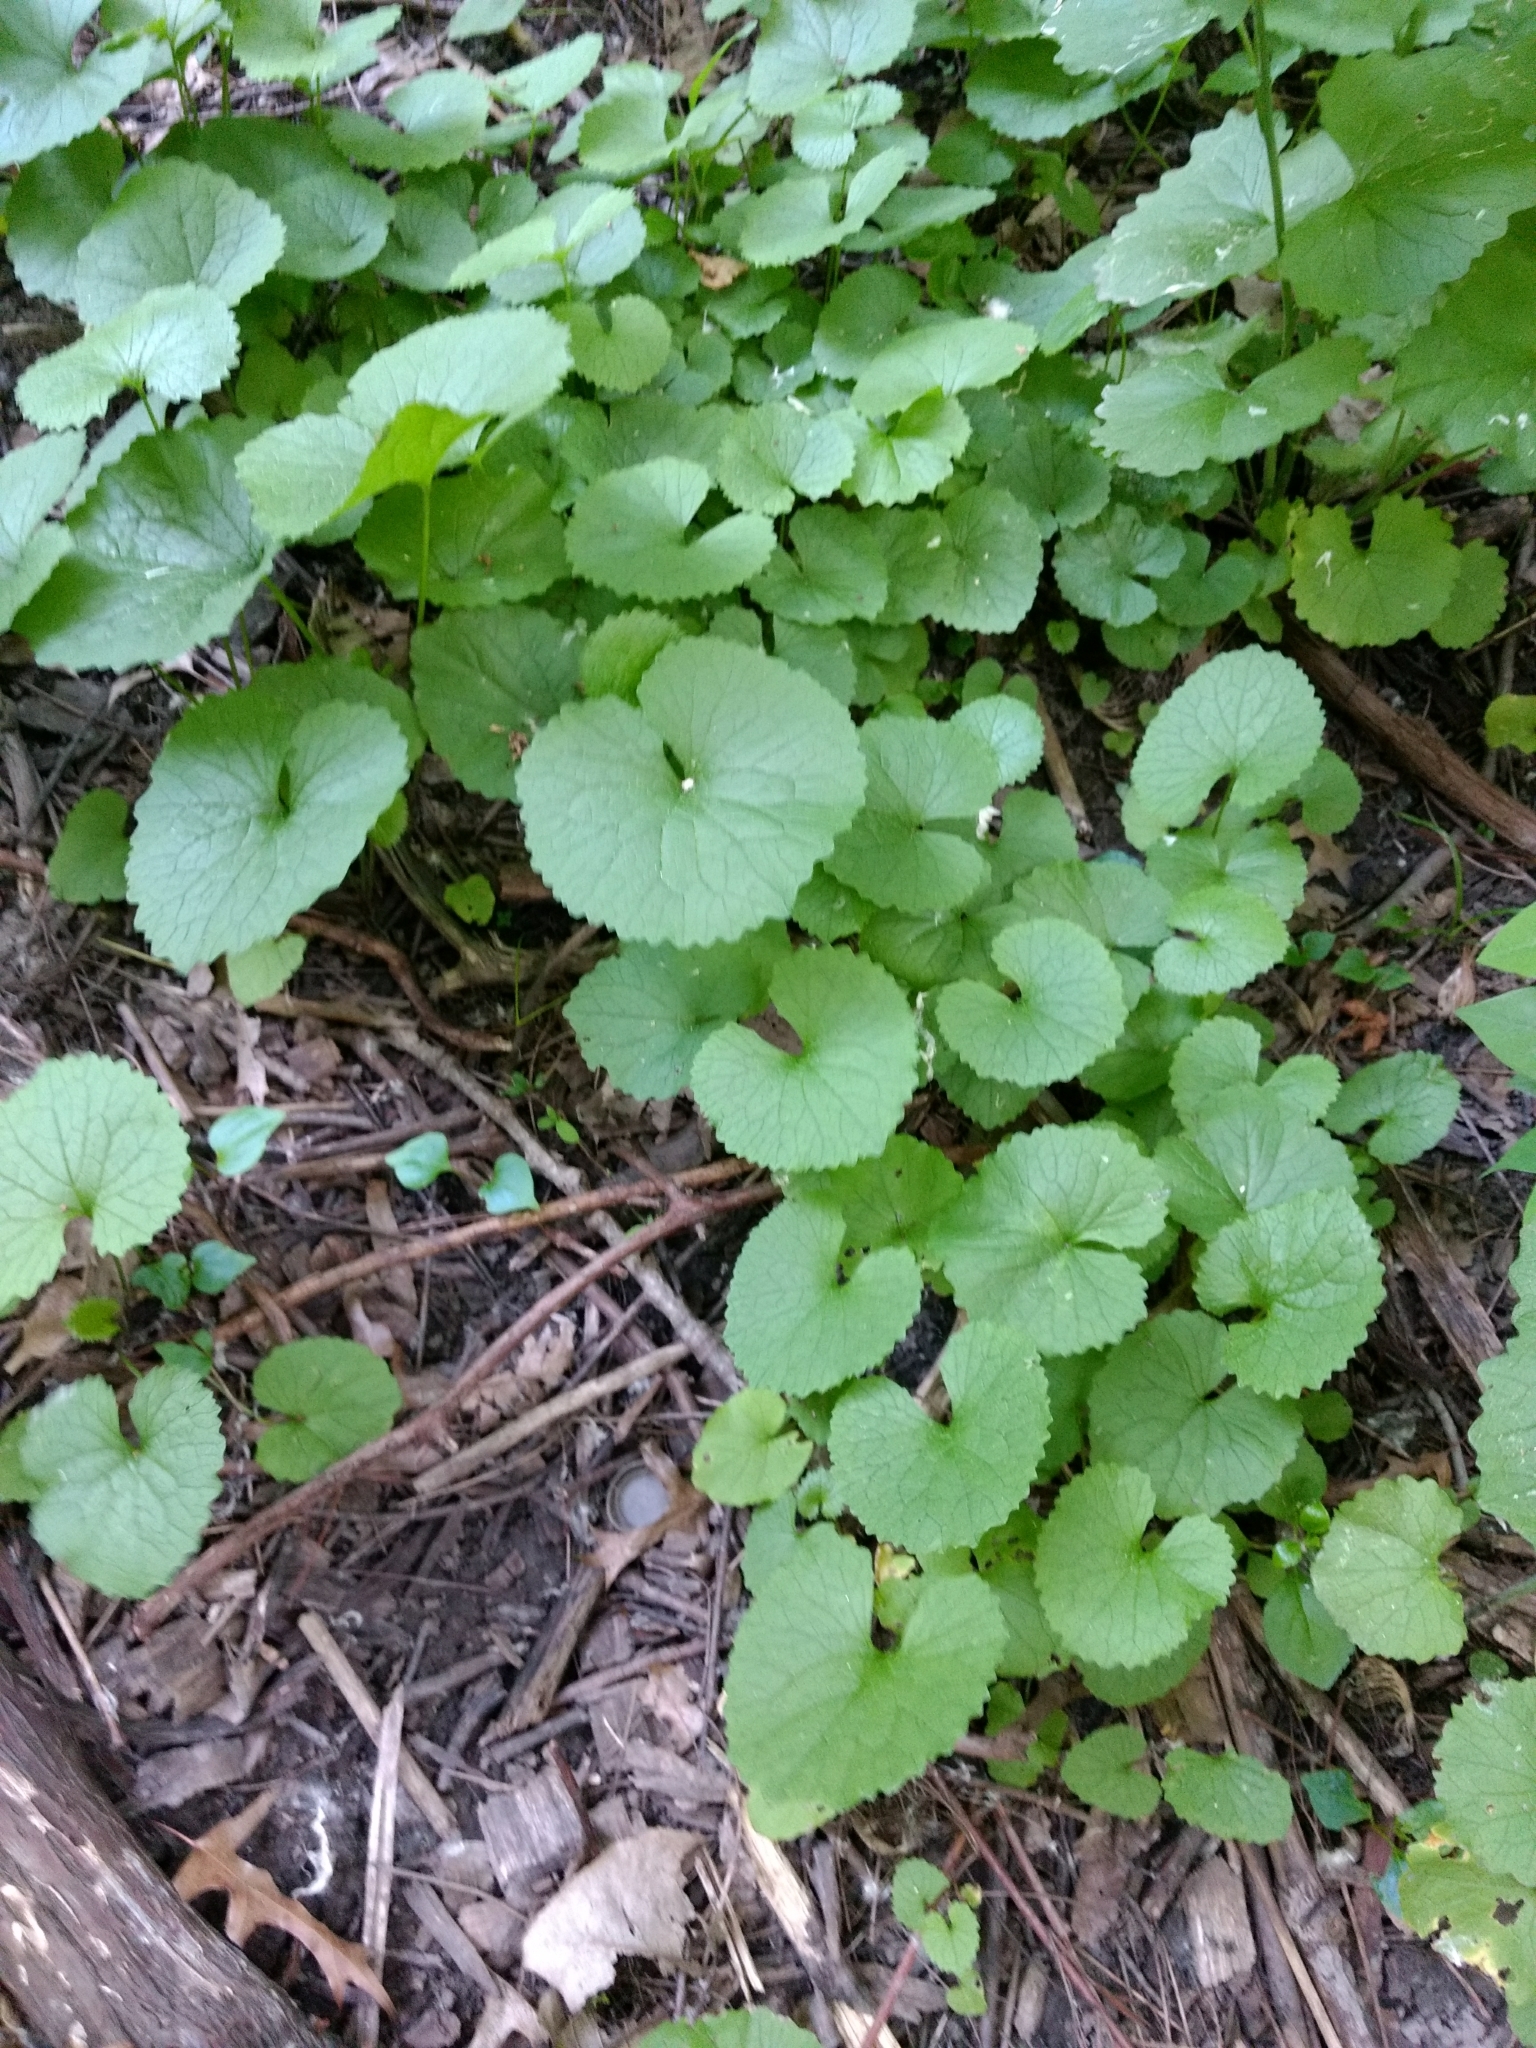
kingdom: Plantae
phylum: Tracheophyta
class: Magnoliopsida
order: Brassicales
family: Brassicaceae
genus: Alliaria
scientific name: Alliaria petiolata
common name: Garlic mustard
